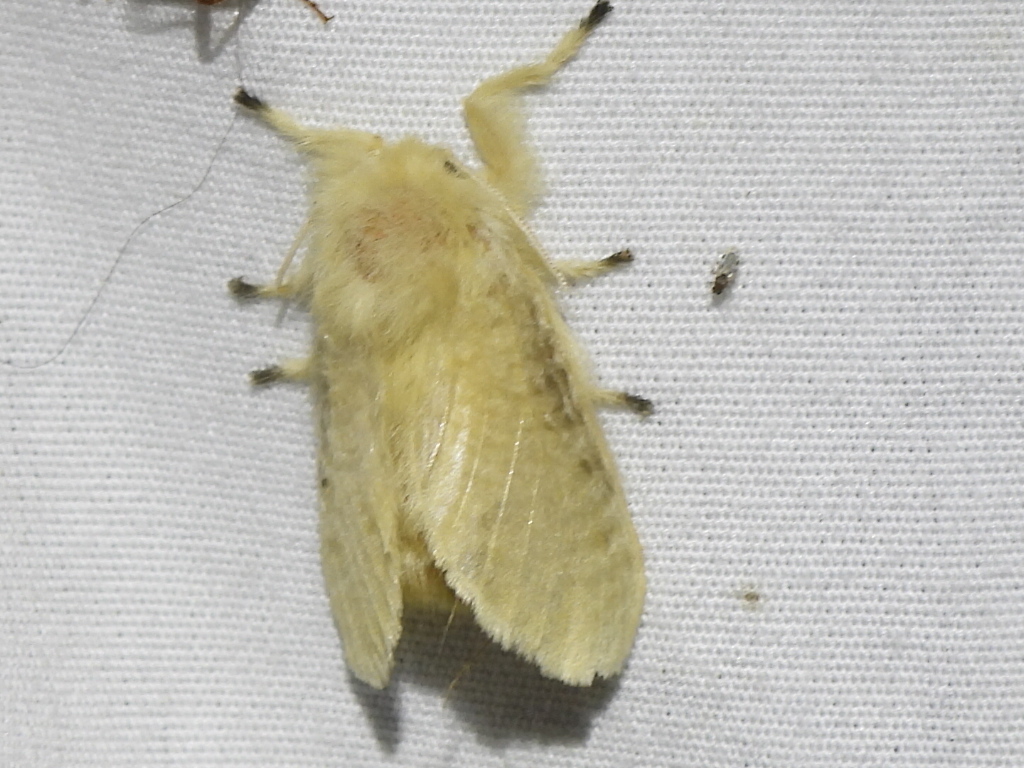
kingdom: Animalia
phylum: Arthropoda
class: Insecta
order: Lepidoptera
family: Megalopygidae
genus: Megalopyge
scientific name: Megalopyge crispata
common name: Black-waved flannel moth
